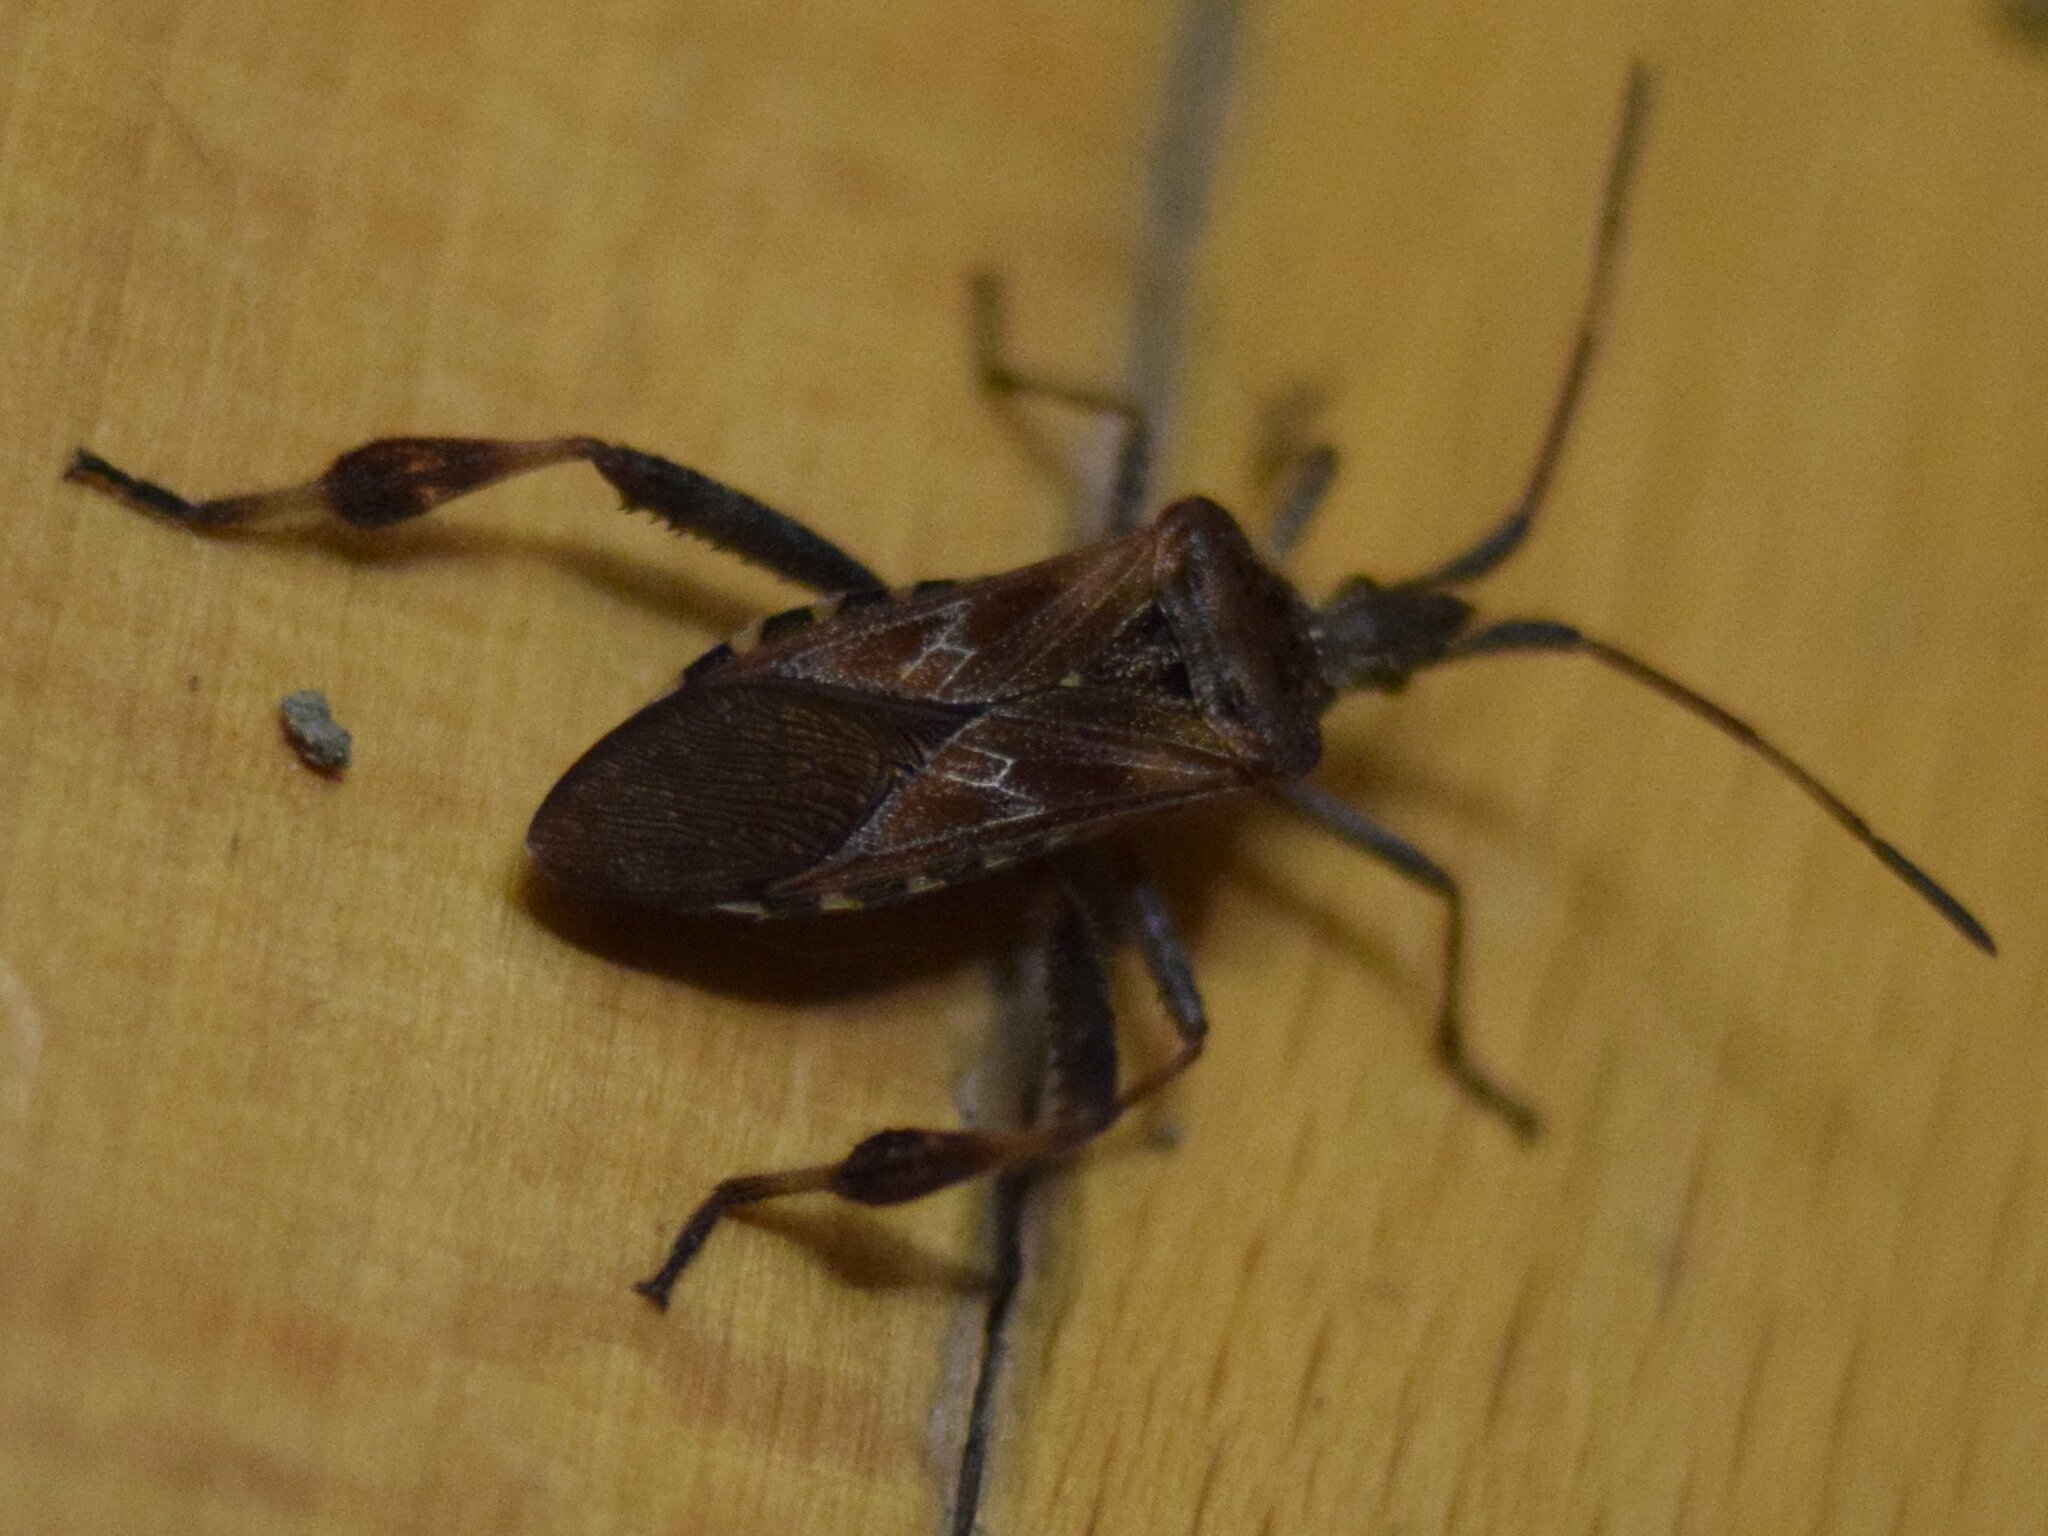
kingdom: Animalia
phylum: Arthropoda
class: Insecta
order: Hemiptera
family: Coreidae
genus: Leptoglossus
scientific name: Leptoglossus occidentalis
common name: Western conifer-seed bug
